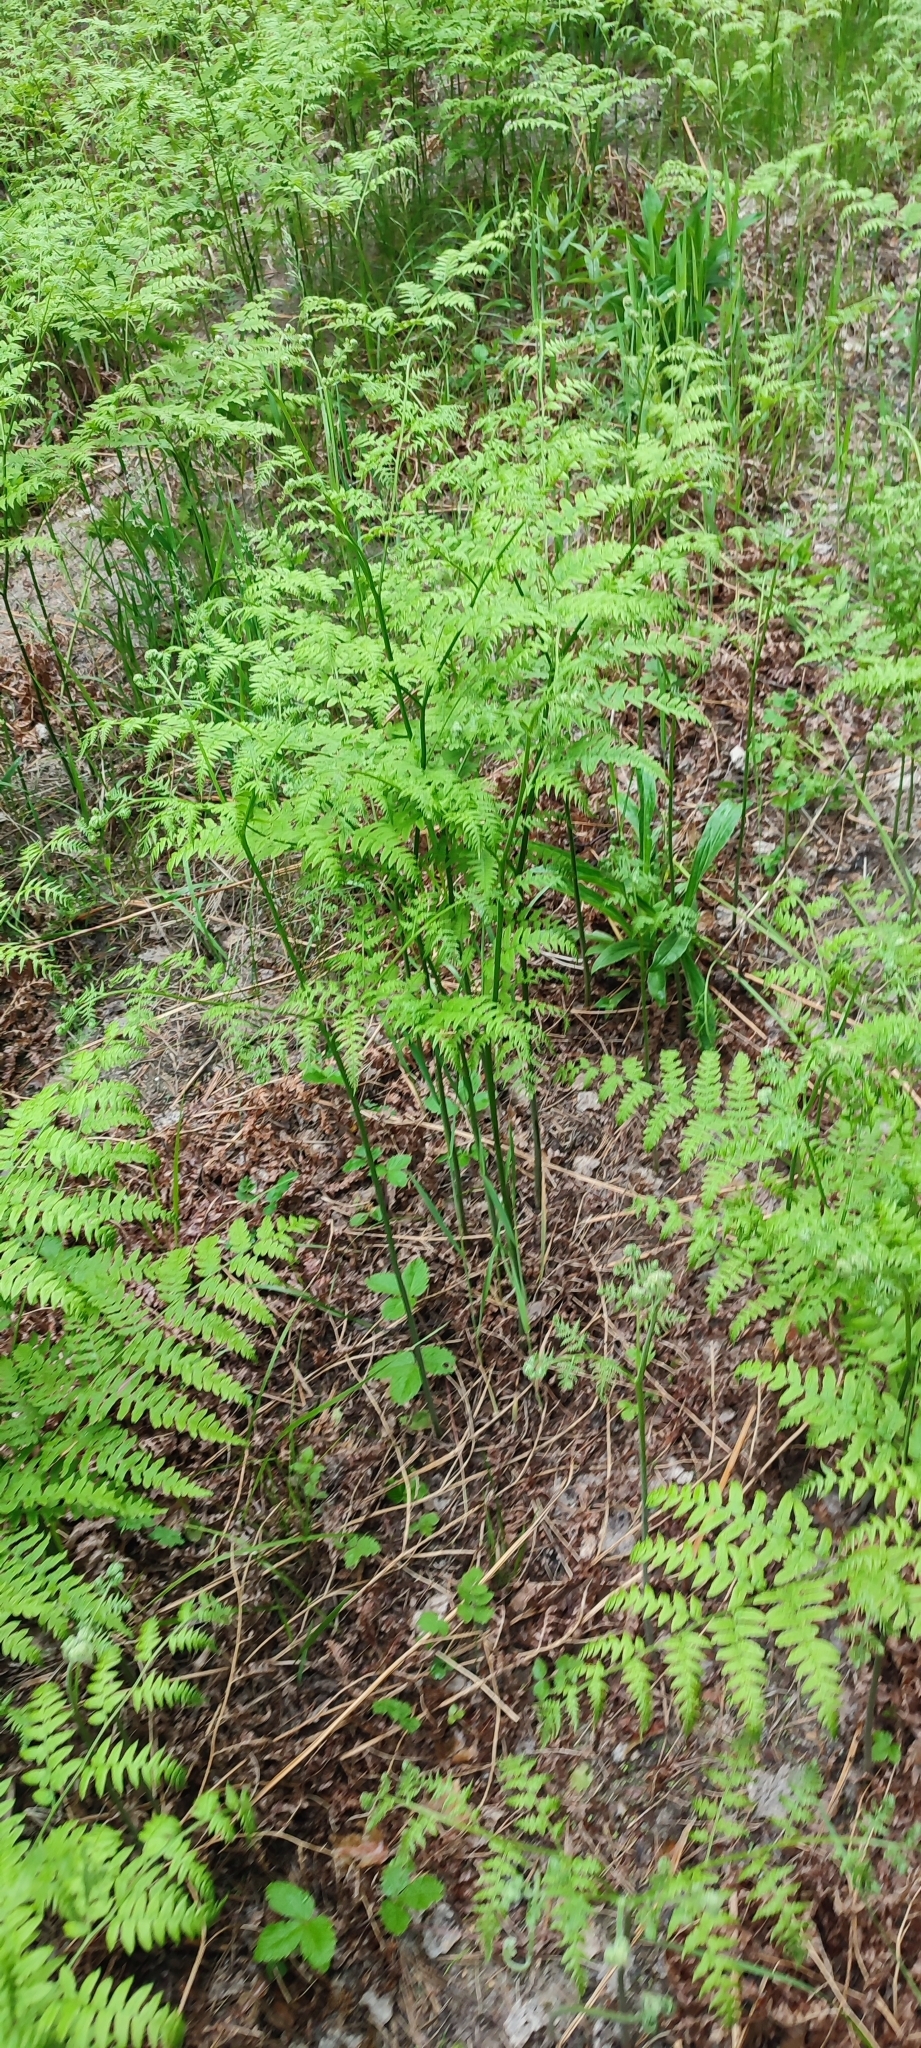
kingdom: Plantae
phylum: Tracheophyta
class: Polypodiopsida
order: Polypodiales
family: Dennstaedtiaceae
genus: Pteridium
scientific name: Pteridium aquilinum
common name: Bracken
